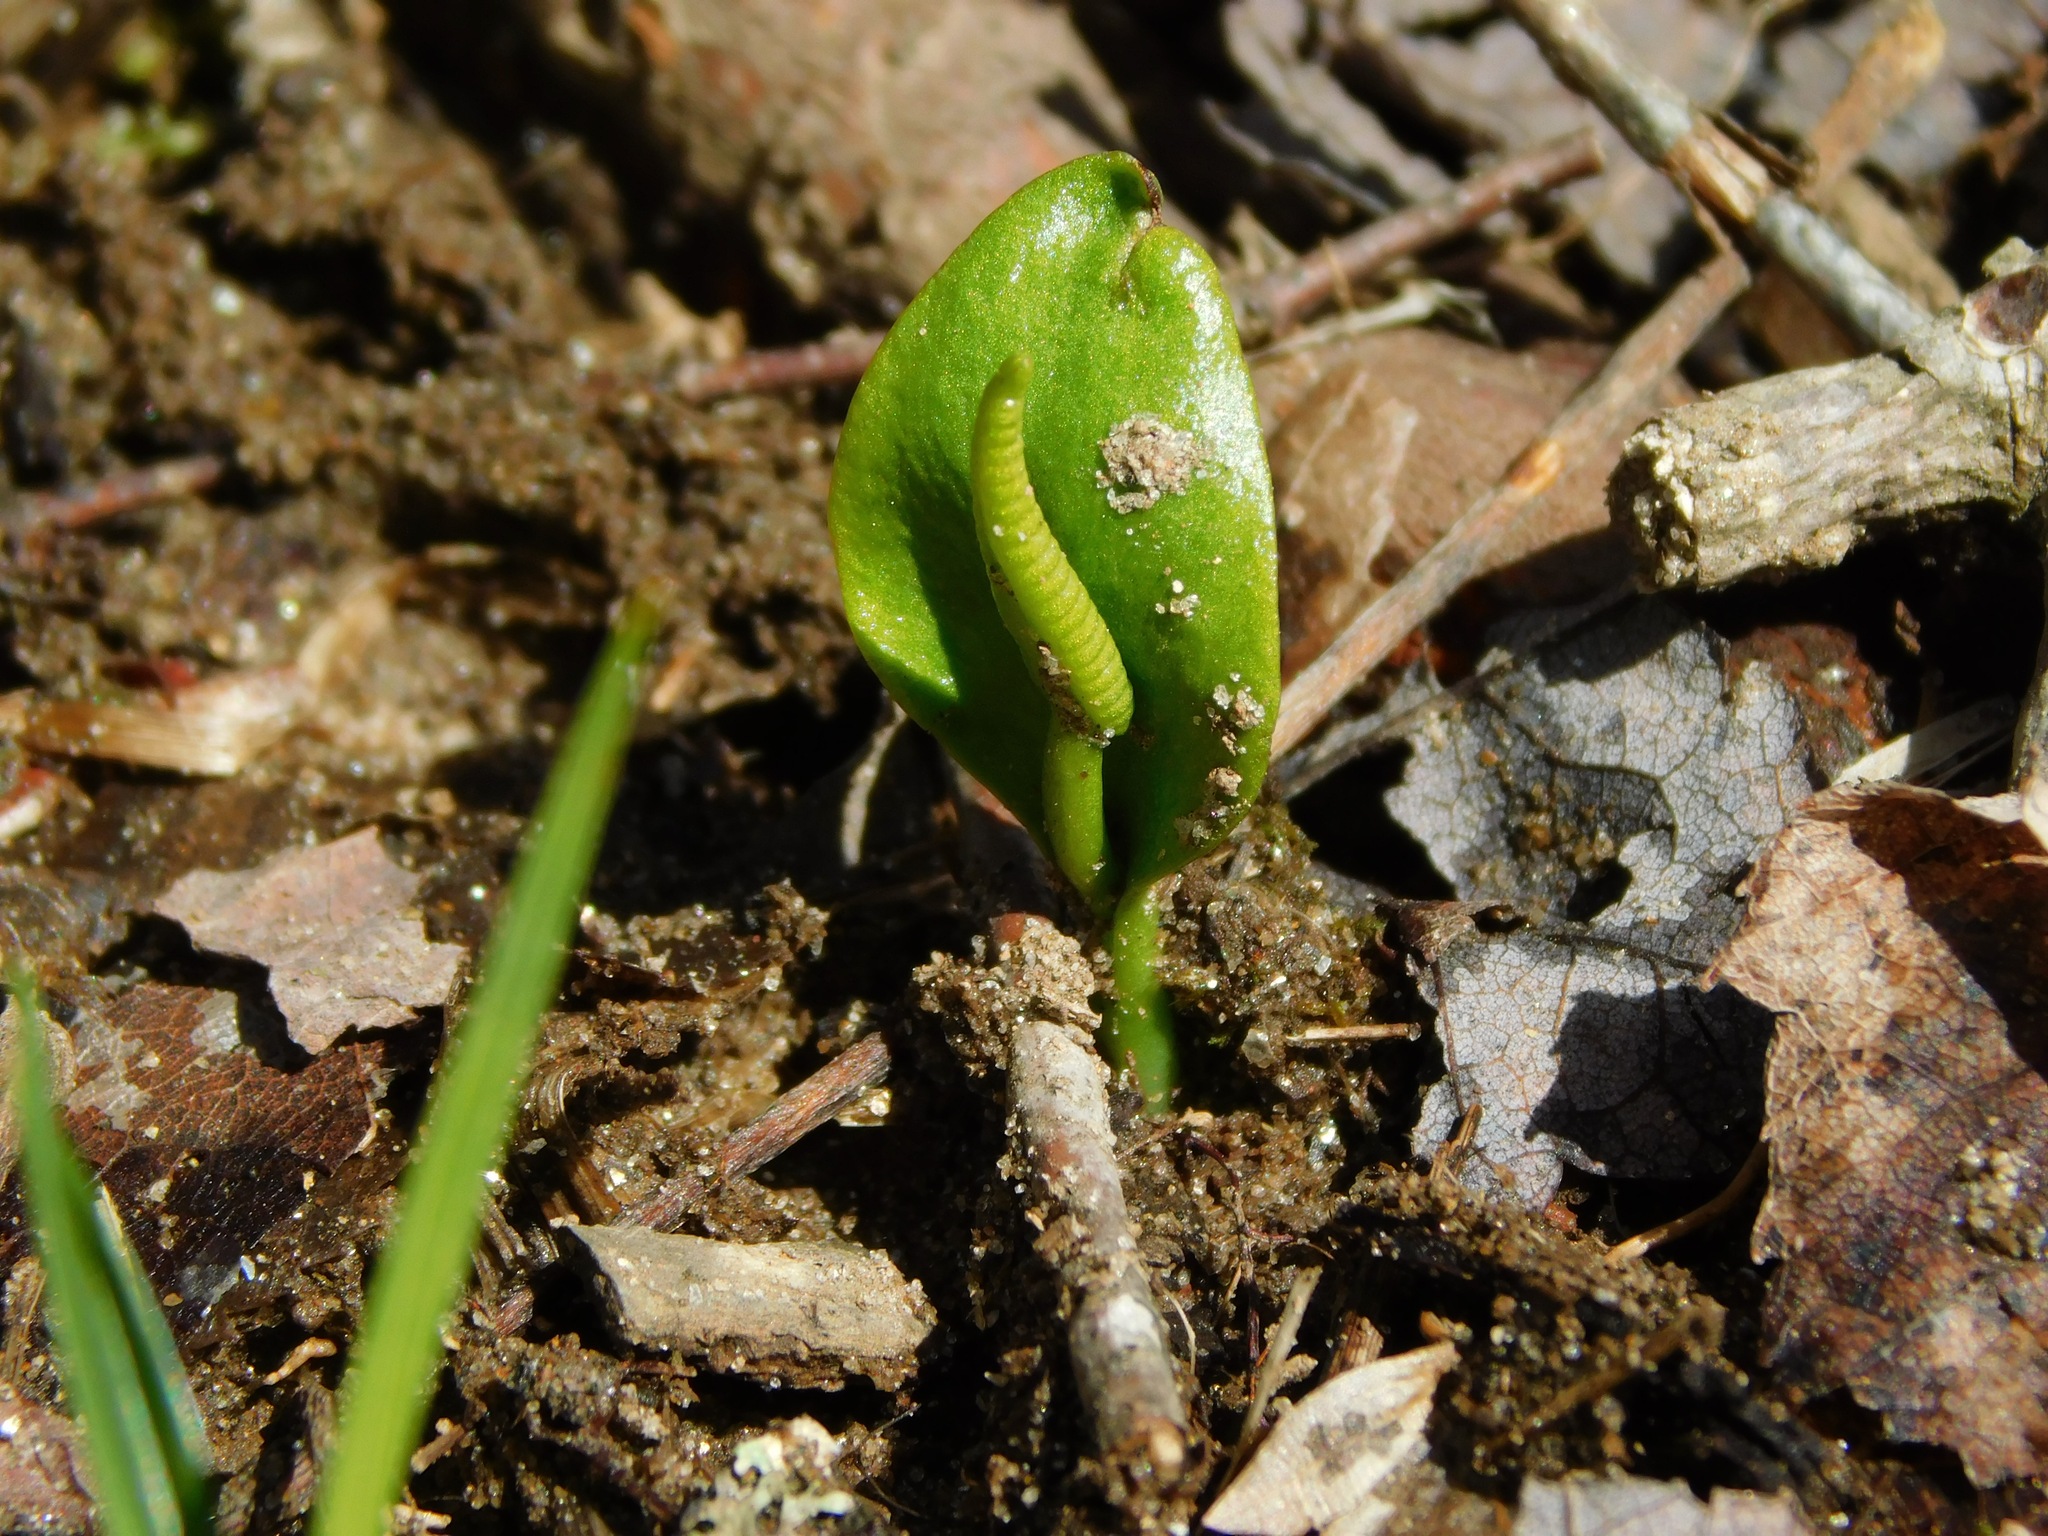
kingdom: Plantae
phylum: Tracheophyta
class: Polypodiopsida
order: Ophioglossales
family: Ophioglossaceae
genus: Ophioglossum
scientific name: Ophioglossum vulgatum
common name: Adder's-tongue
